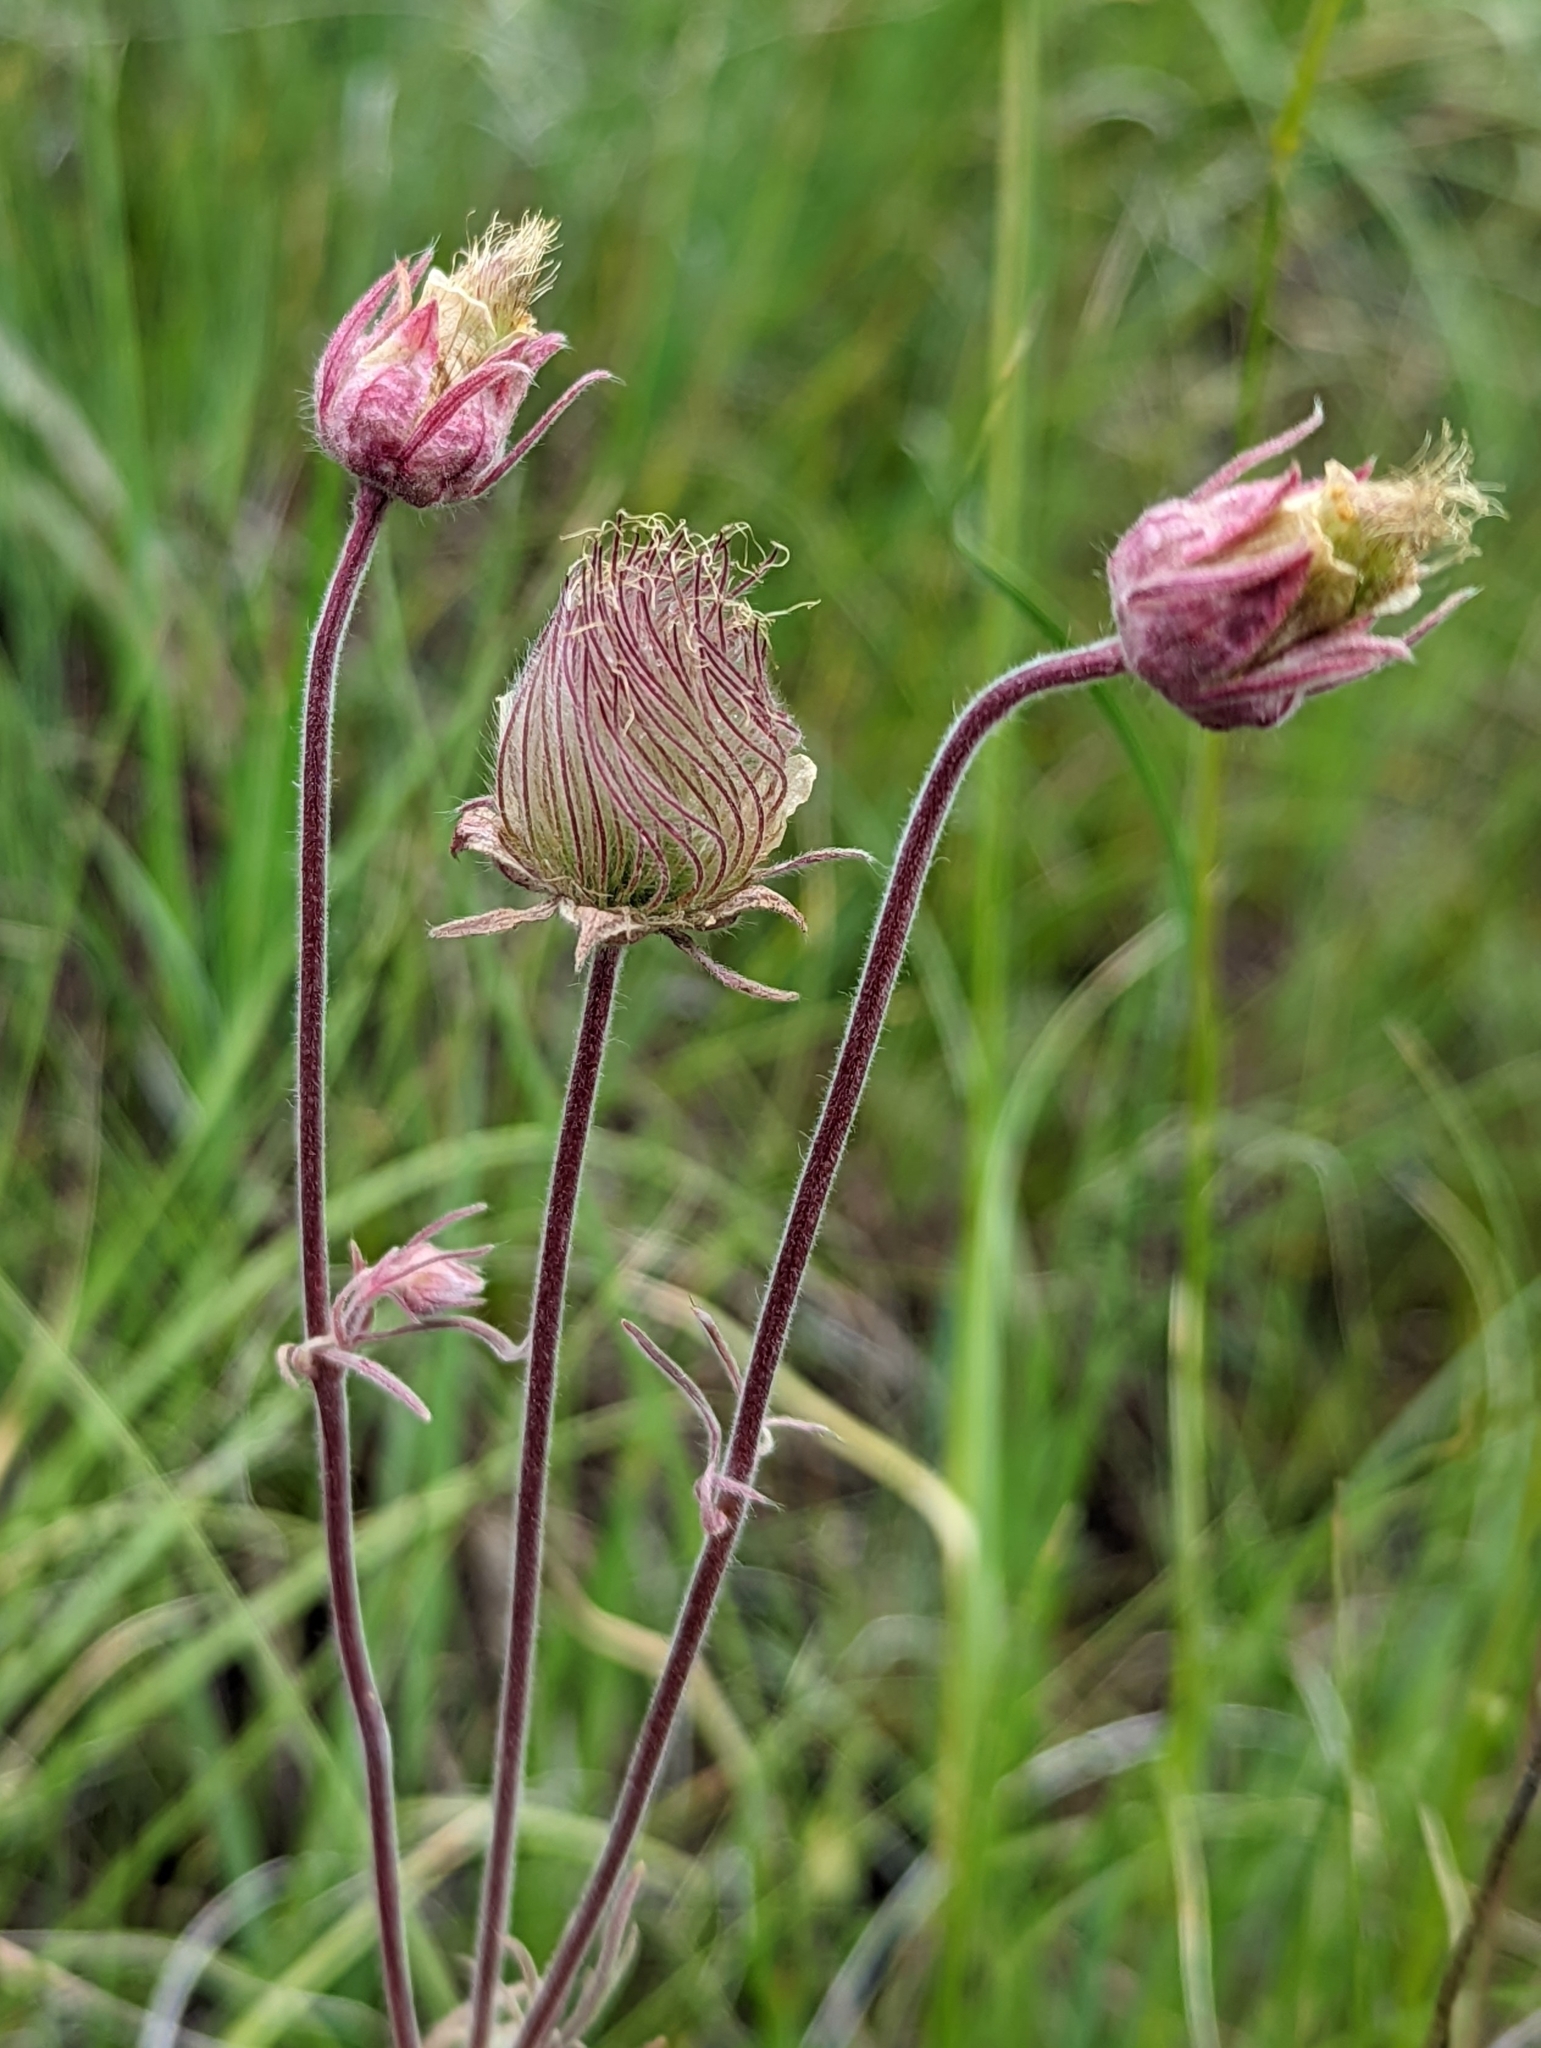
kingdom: Plantae
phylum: Tracheophyta
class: Magnoliopsida
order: Rosales
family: Rosaceae
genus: Geum
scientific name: Geum triflorum
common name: Old man's whiskers
